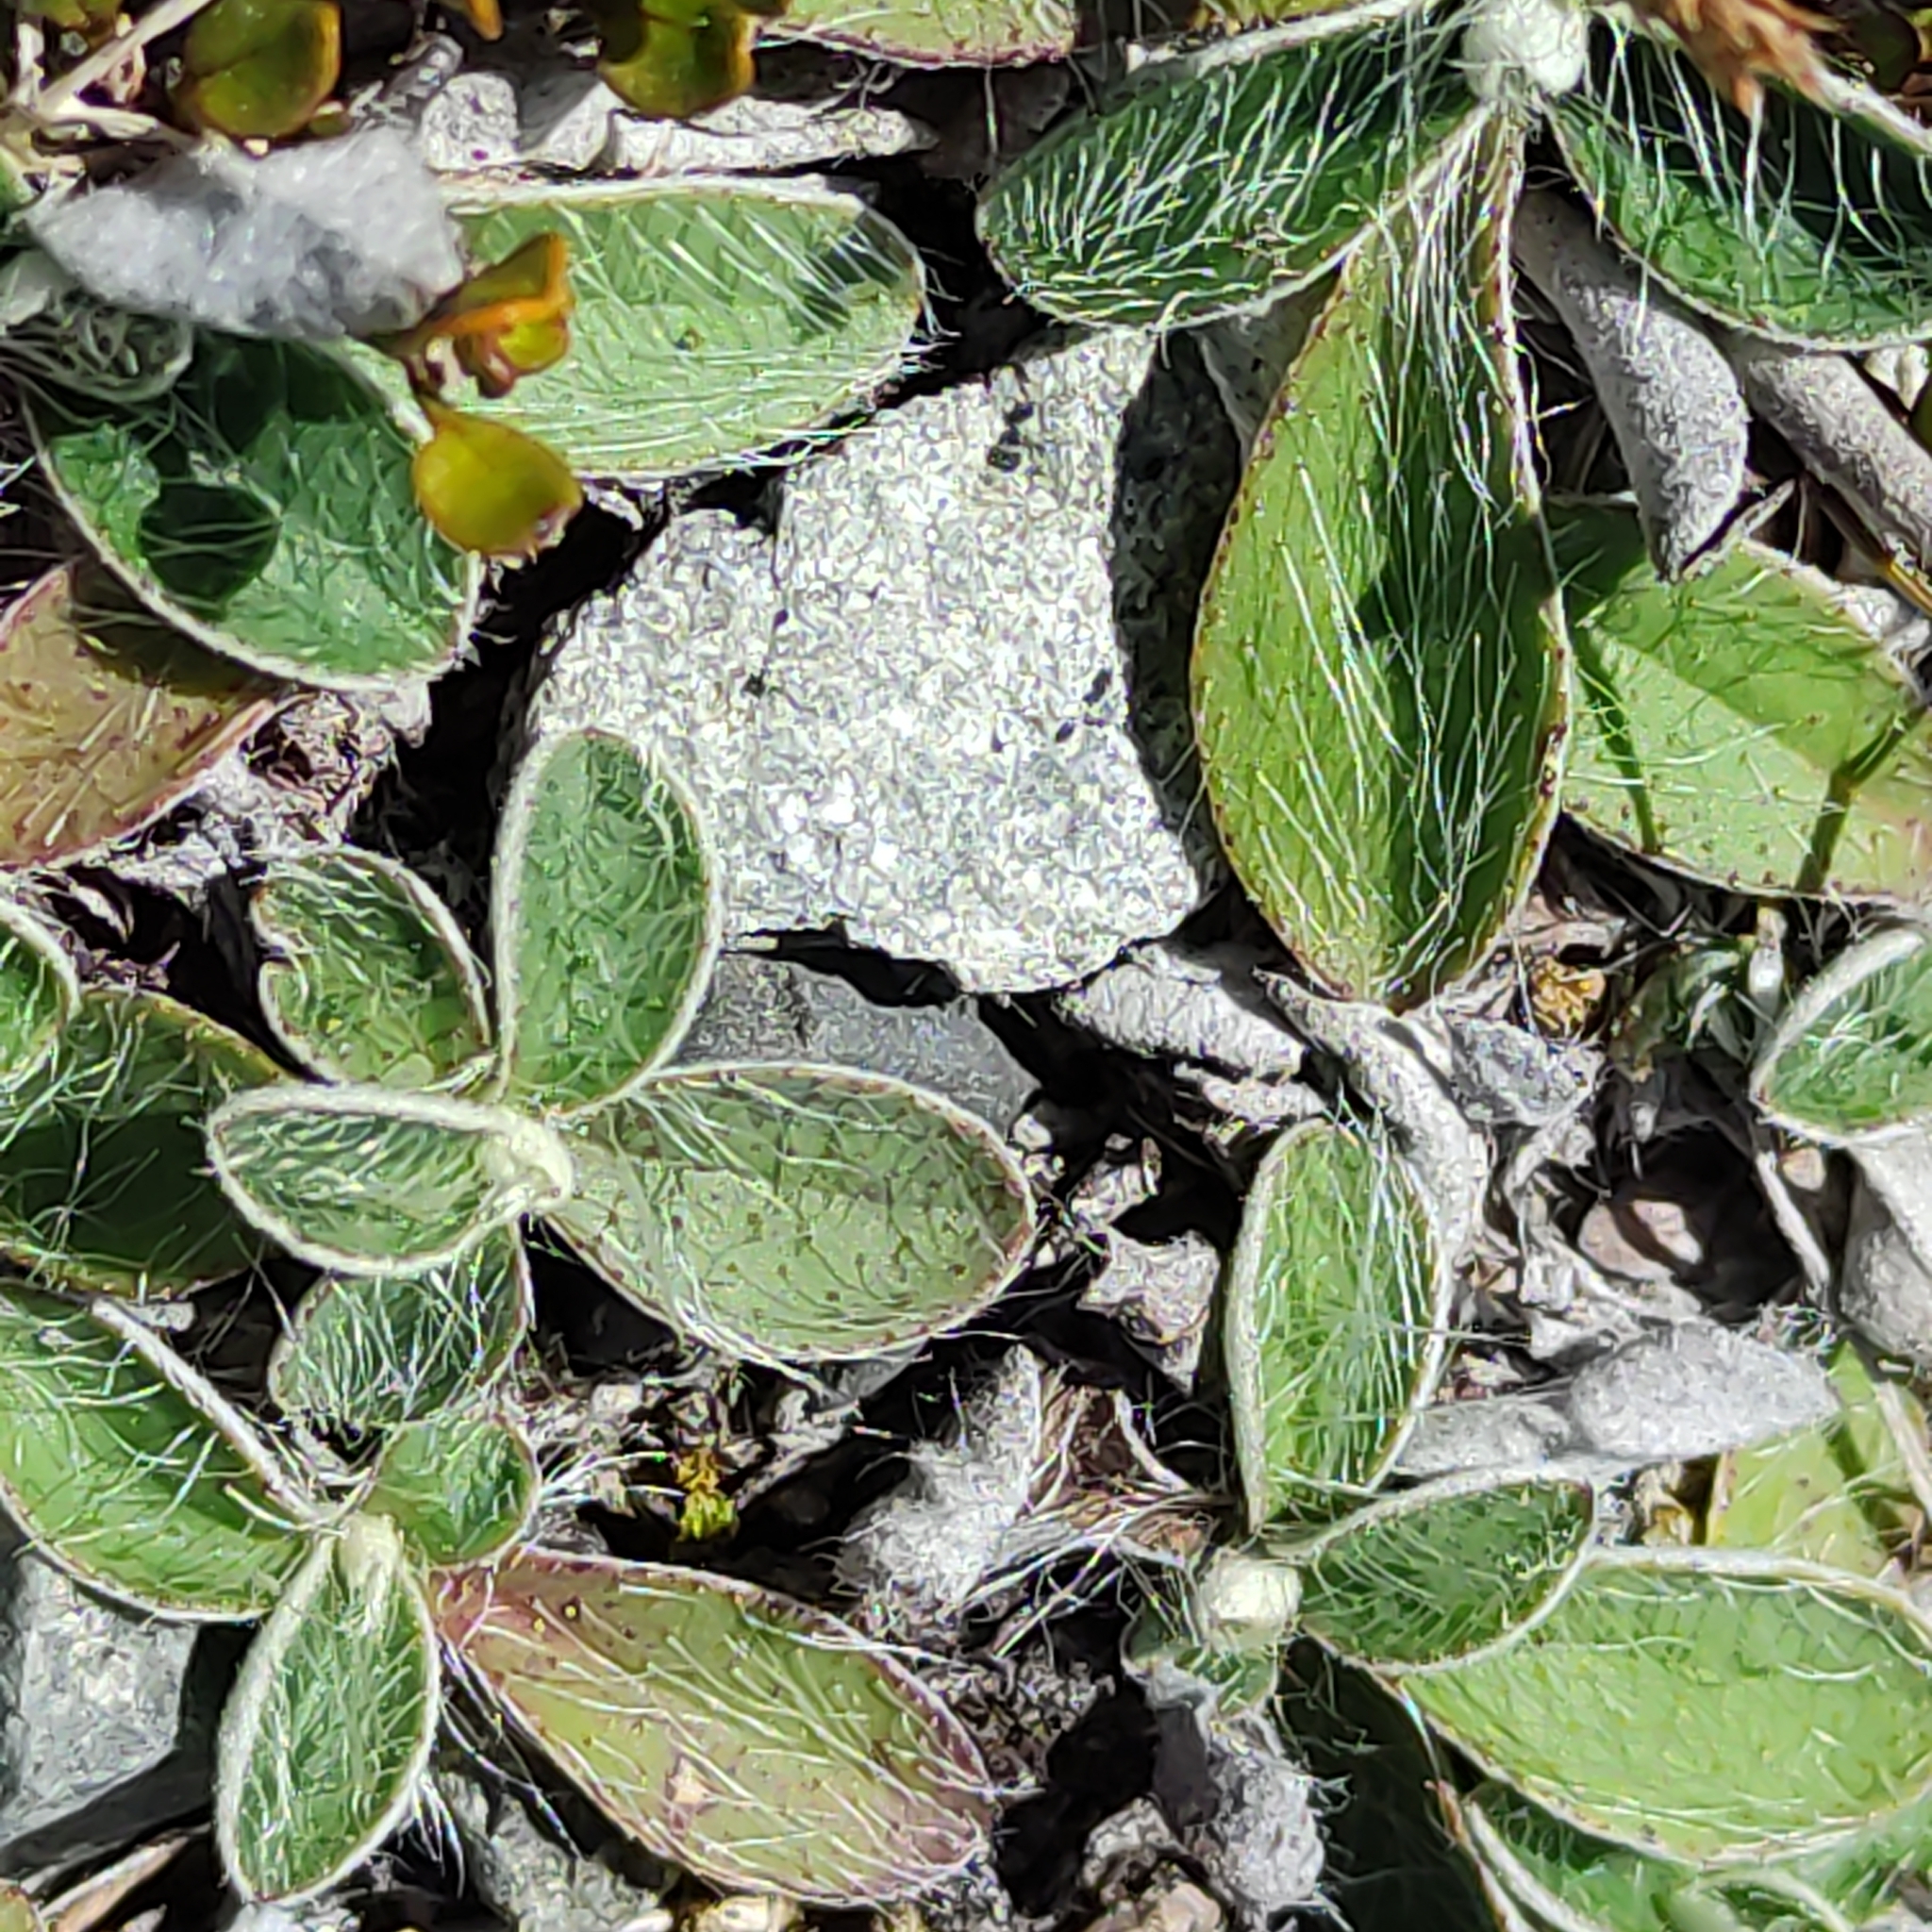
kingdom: Plantae
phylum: Tracheophyta
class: Magnoliopsida
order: Asterales
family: Asteraceae
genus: Pilosella
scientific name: Pilosella officinarum
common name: Mouse-ear hawkweed
